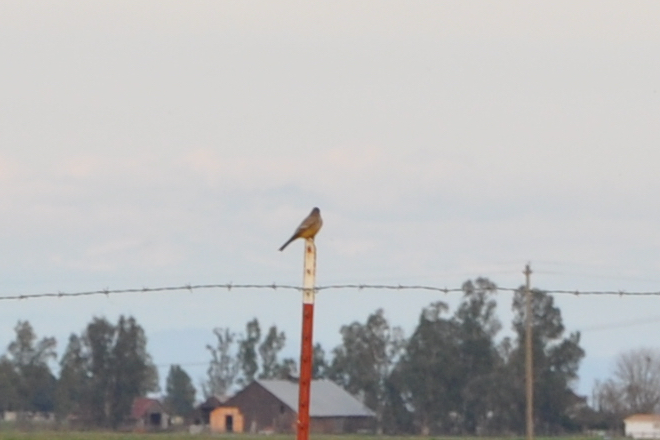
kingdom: Animalia
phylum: Chordata
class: Aves
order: Passeriformes
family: Tyrannidae
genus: Sayornis
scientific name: Sayornis saya
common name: Say's phoebe
